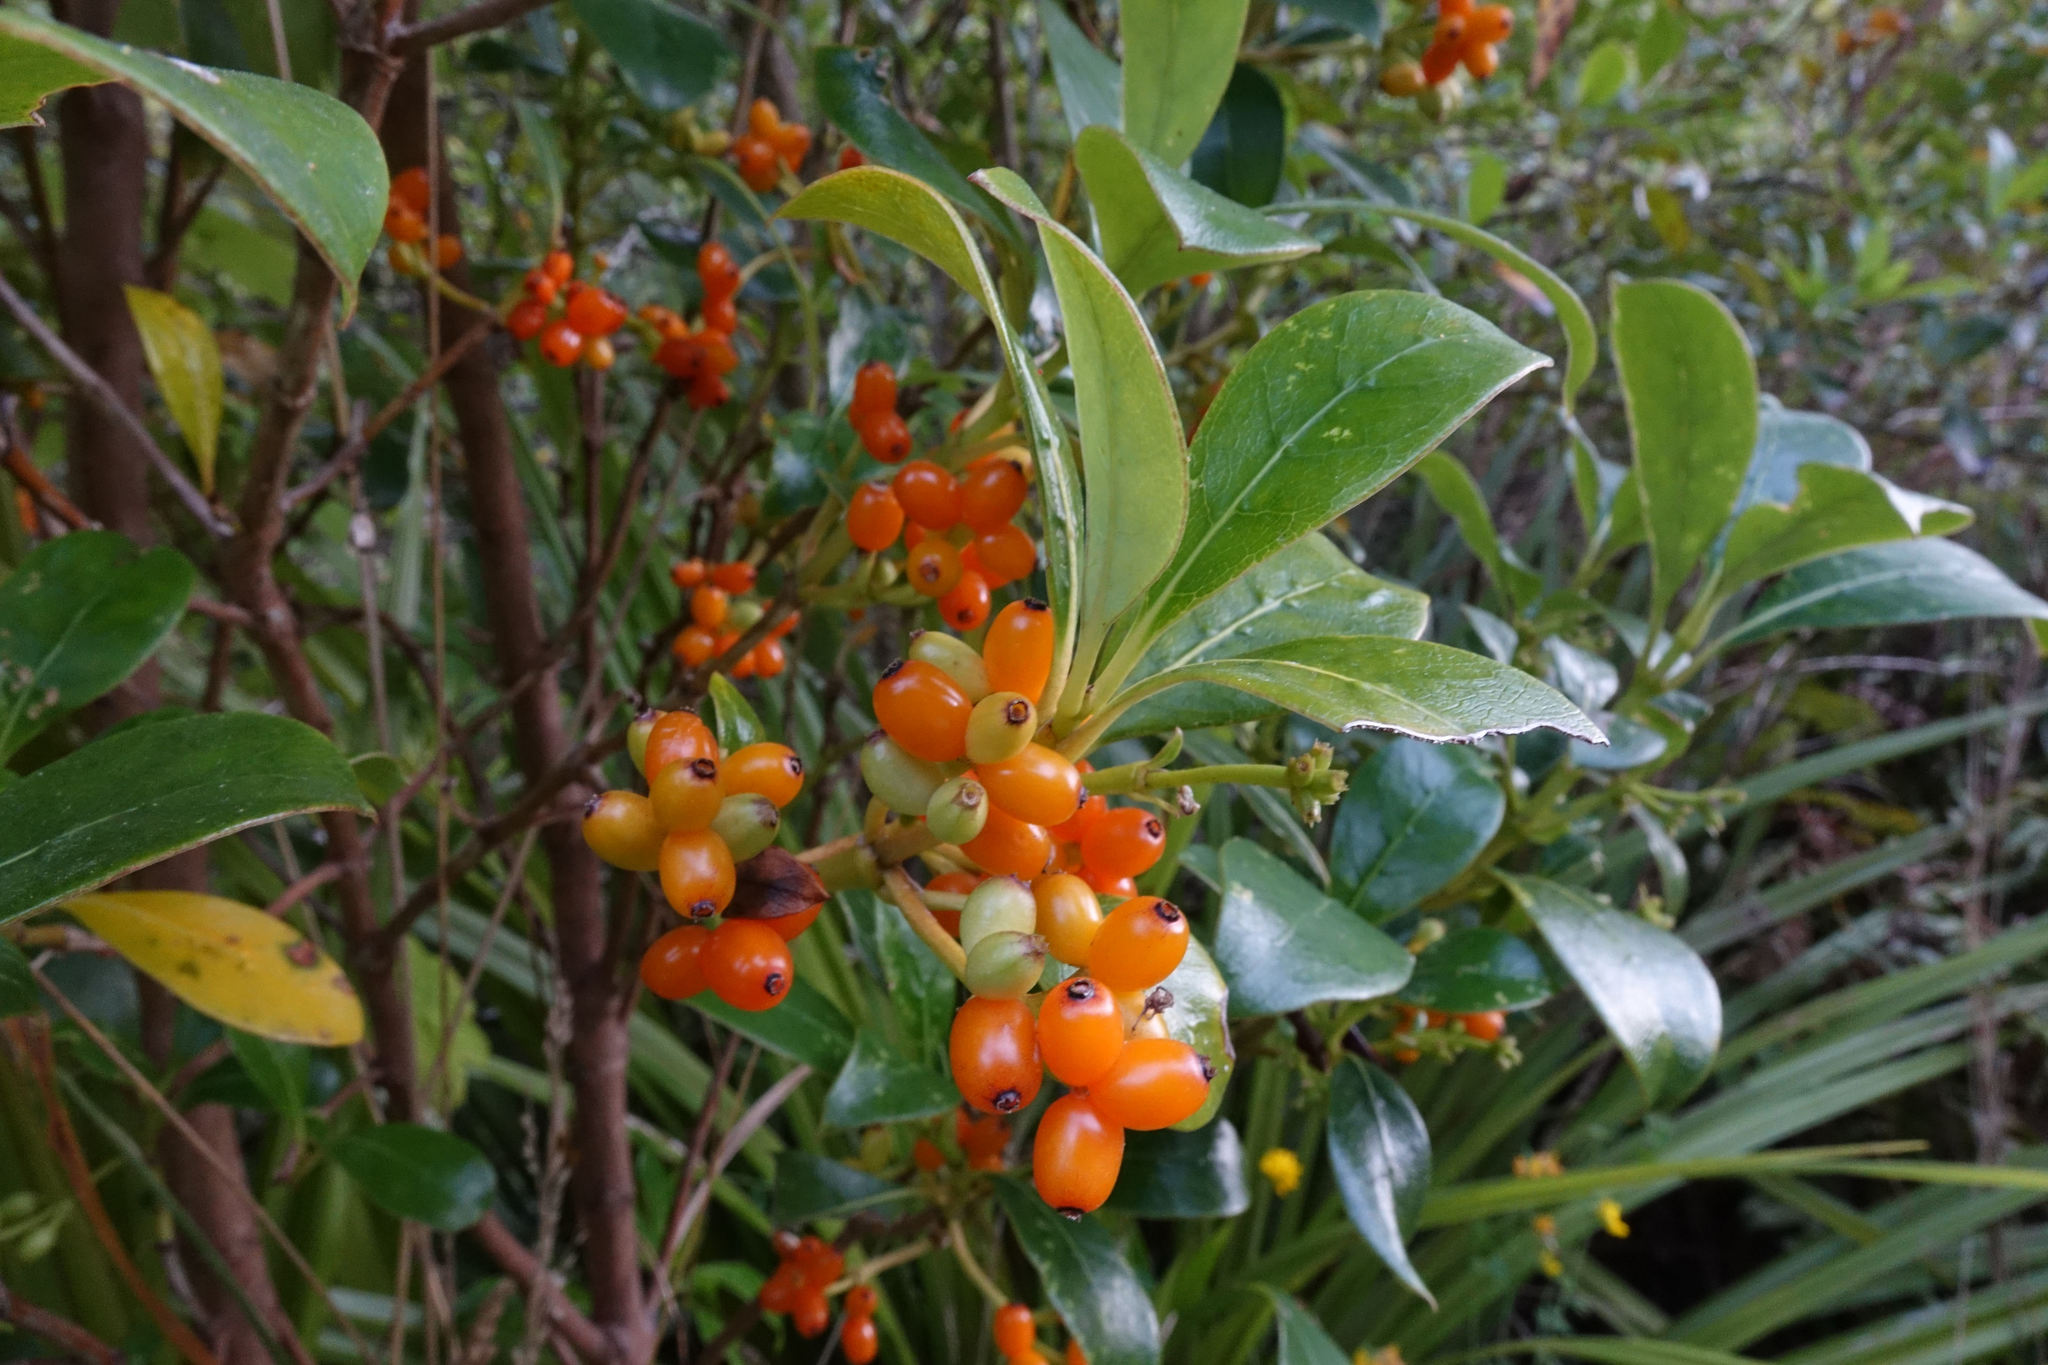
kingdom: Plantae
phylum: Tracheophyta
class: Magnoliopsida
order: Gentianales
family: Rubiaceae
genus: Coprosma
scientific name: Coprosma lucida
